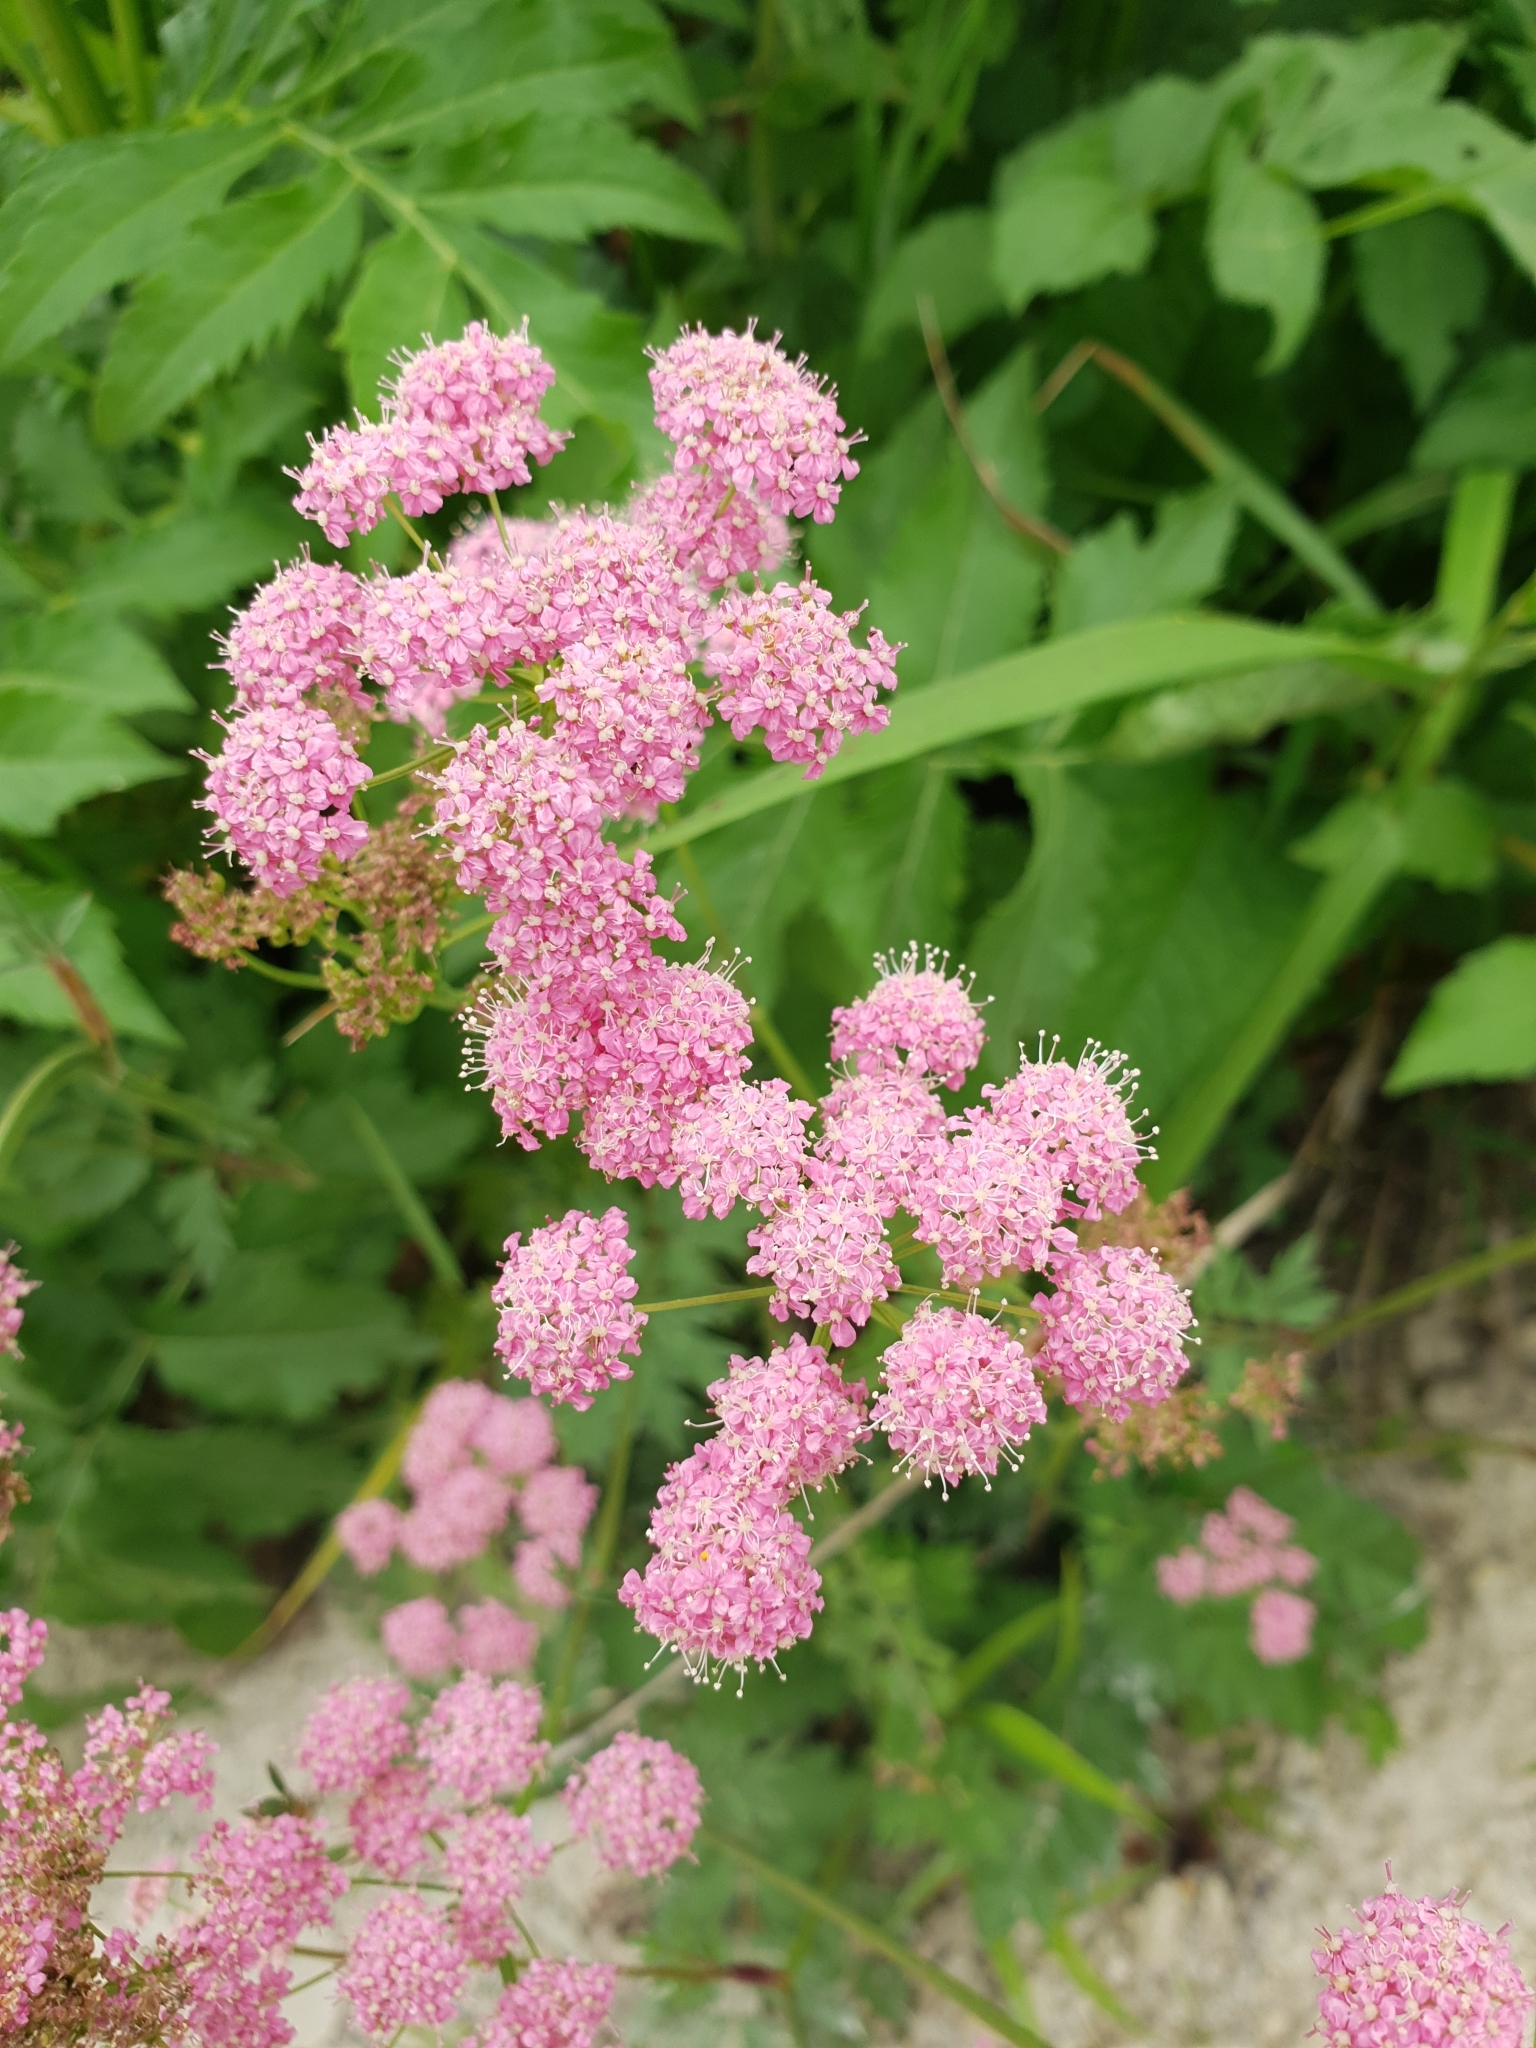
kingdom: Plantae
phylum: Tracheophyta
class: Magnoliopsida
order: Apiales
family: Apiaceae
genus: Pimpinella
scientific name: Pimpinella rhodantha
